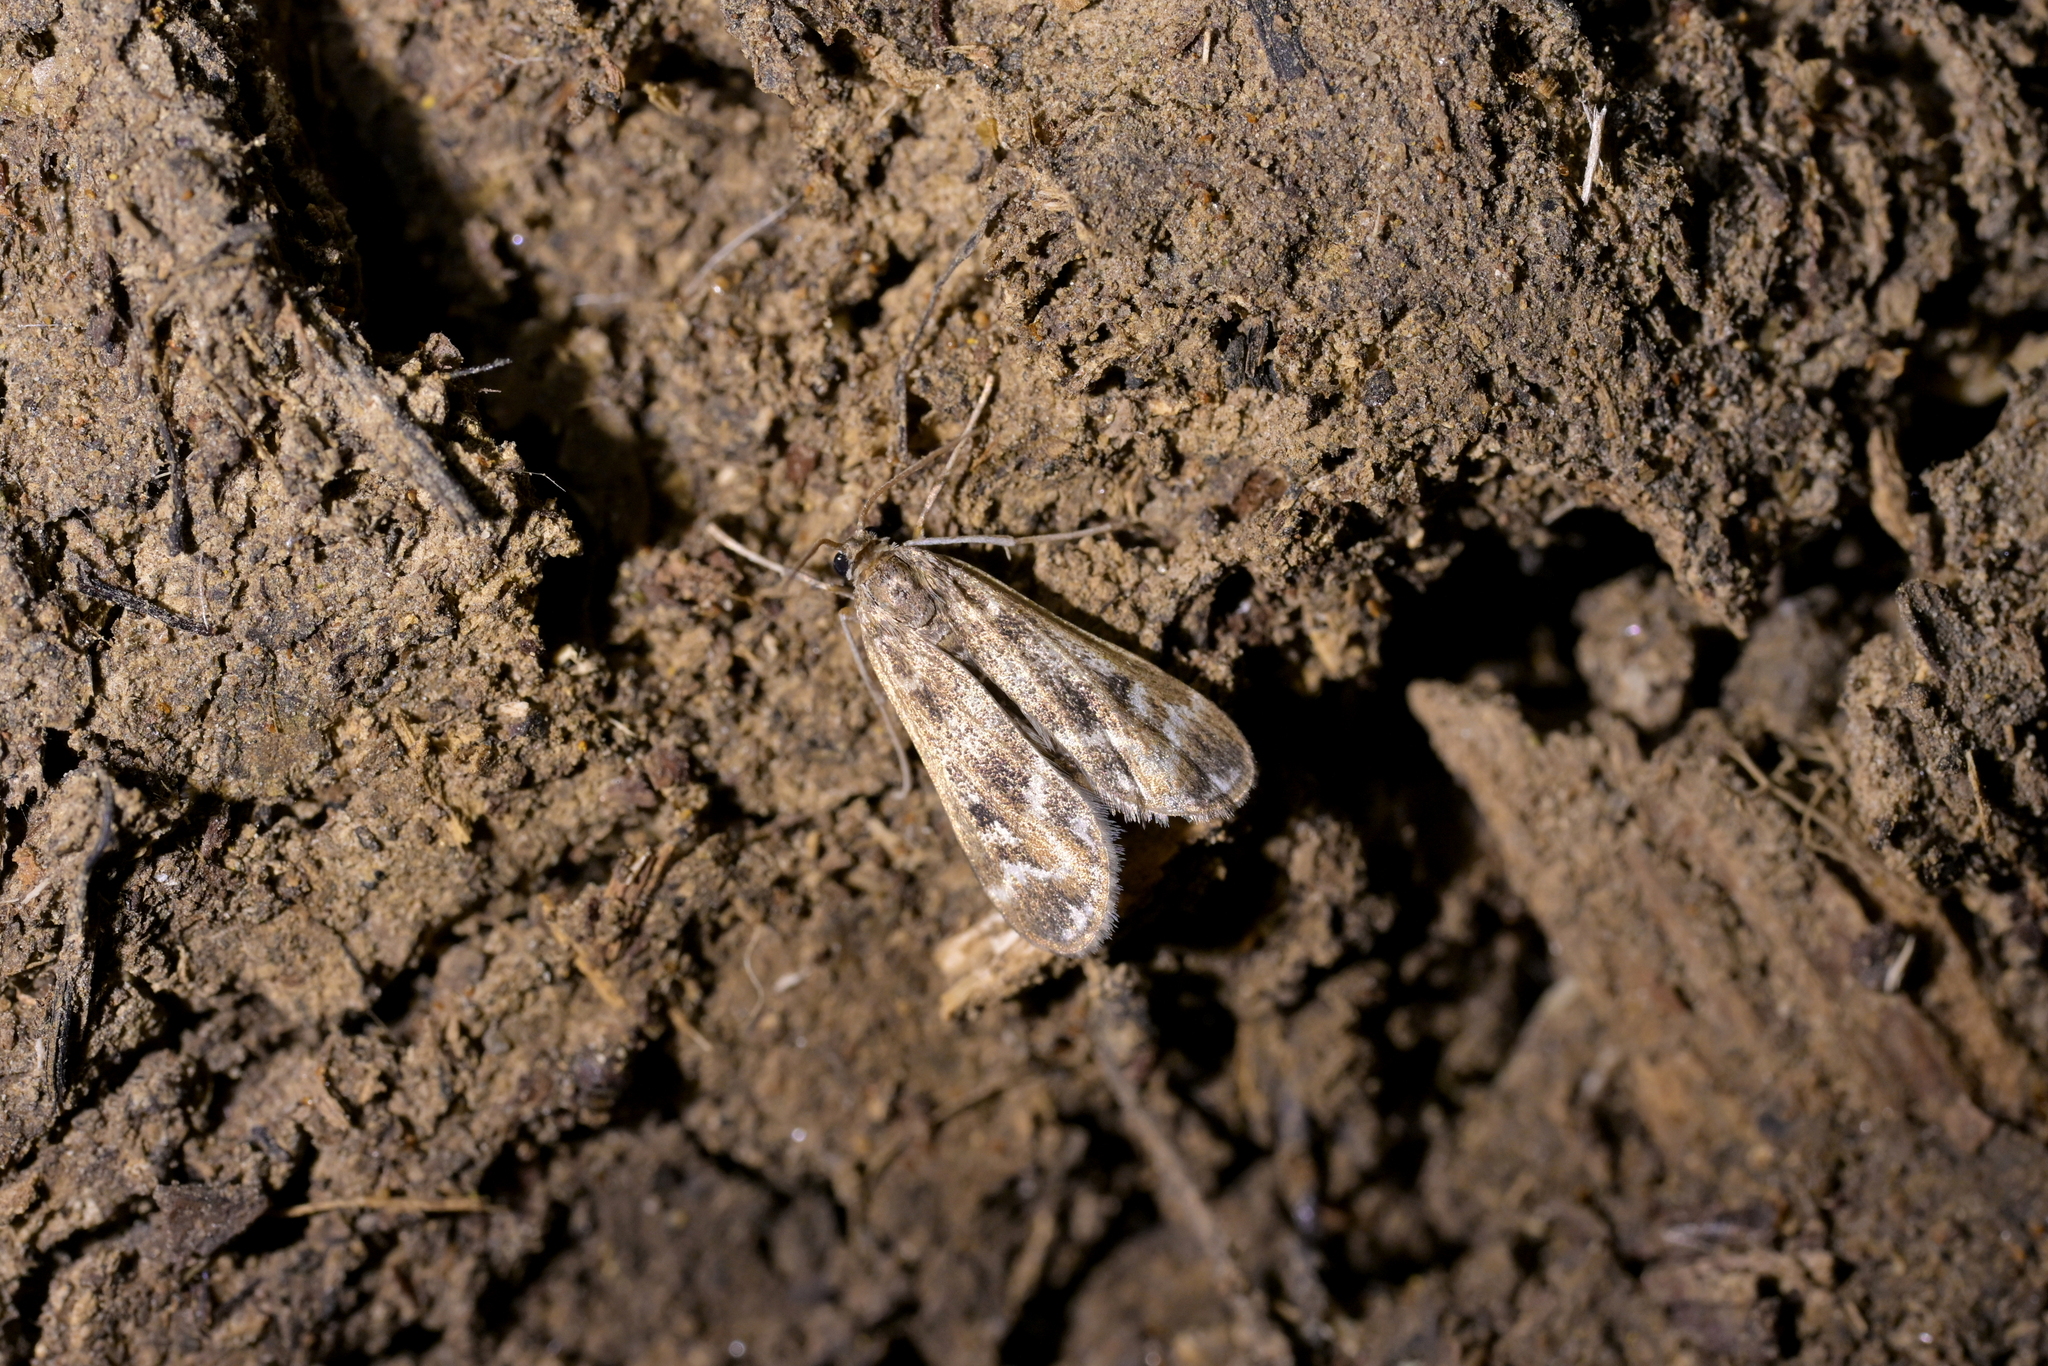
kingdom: Animalia
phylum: Arthropoda
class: Insecta
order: Lepidoptera
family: Crambidae
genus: Hygraula
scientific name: Hygraula nitens
